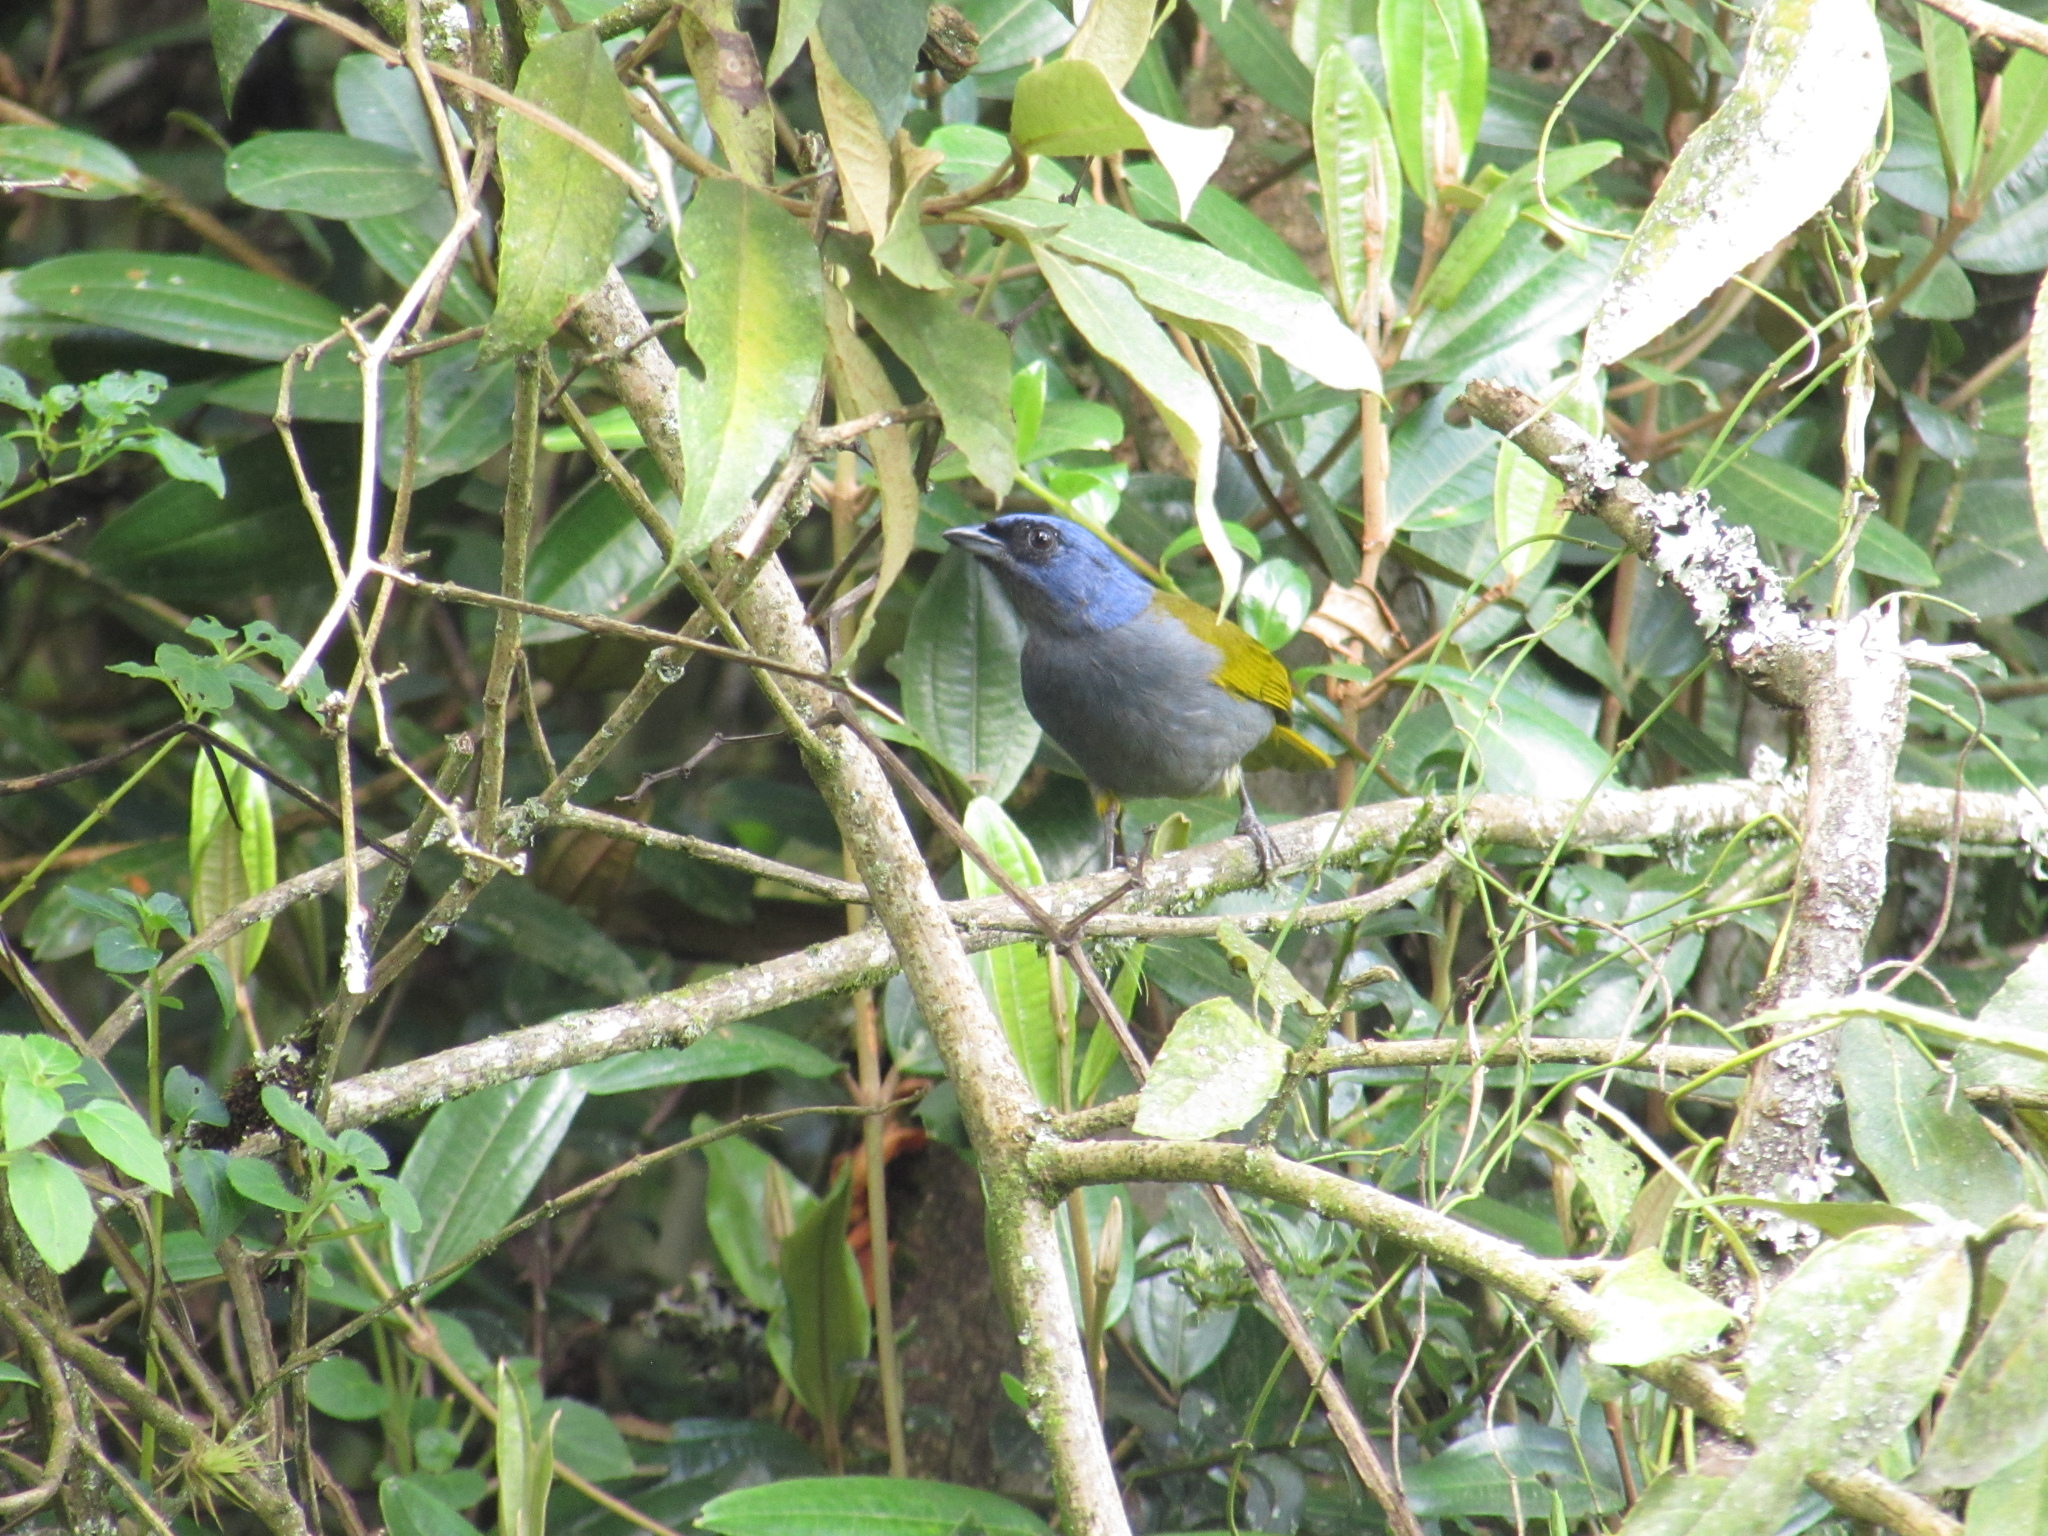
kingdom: Animalia
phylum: Chordata
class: Aves
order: Passeriformes
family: Thraupidae
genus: Sporathraupis
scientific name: Sporathraupis cyanocephala
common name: Blue-capped tanager
